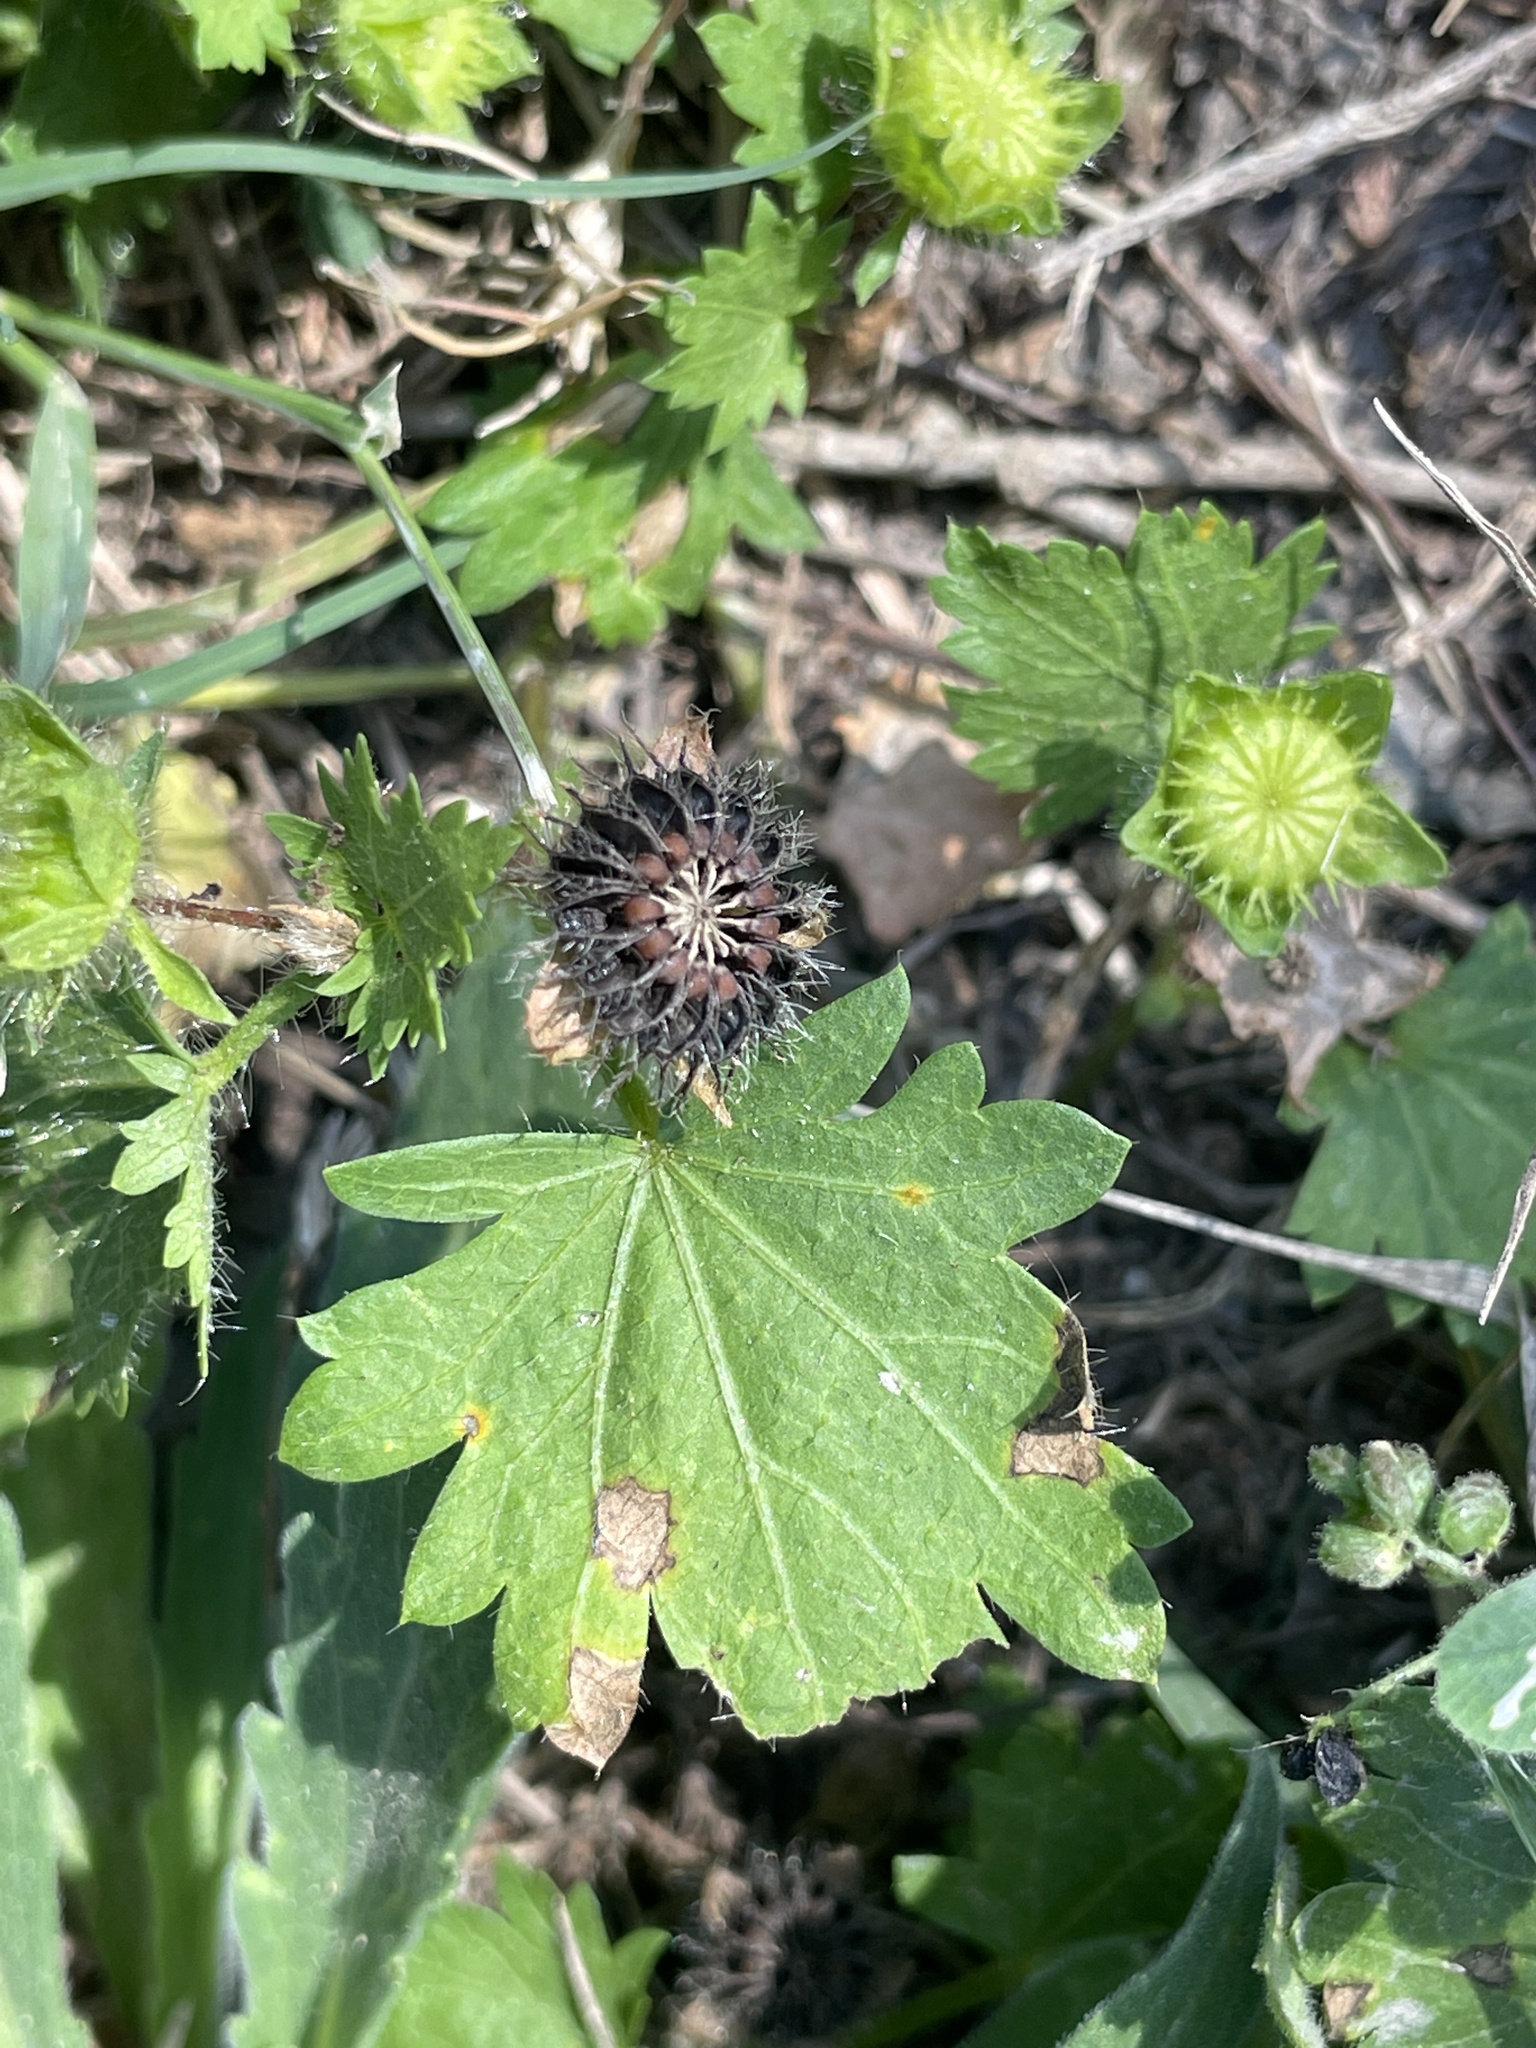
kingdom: Plantae
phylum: Tracheophyta
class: Magnoliopsida
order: Malvales
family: Malvaceae
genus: Modiola
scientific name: Modiola caroliniana
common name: Carolina bristlemallow
